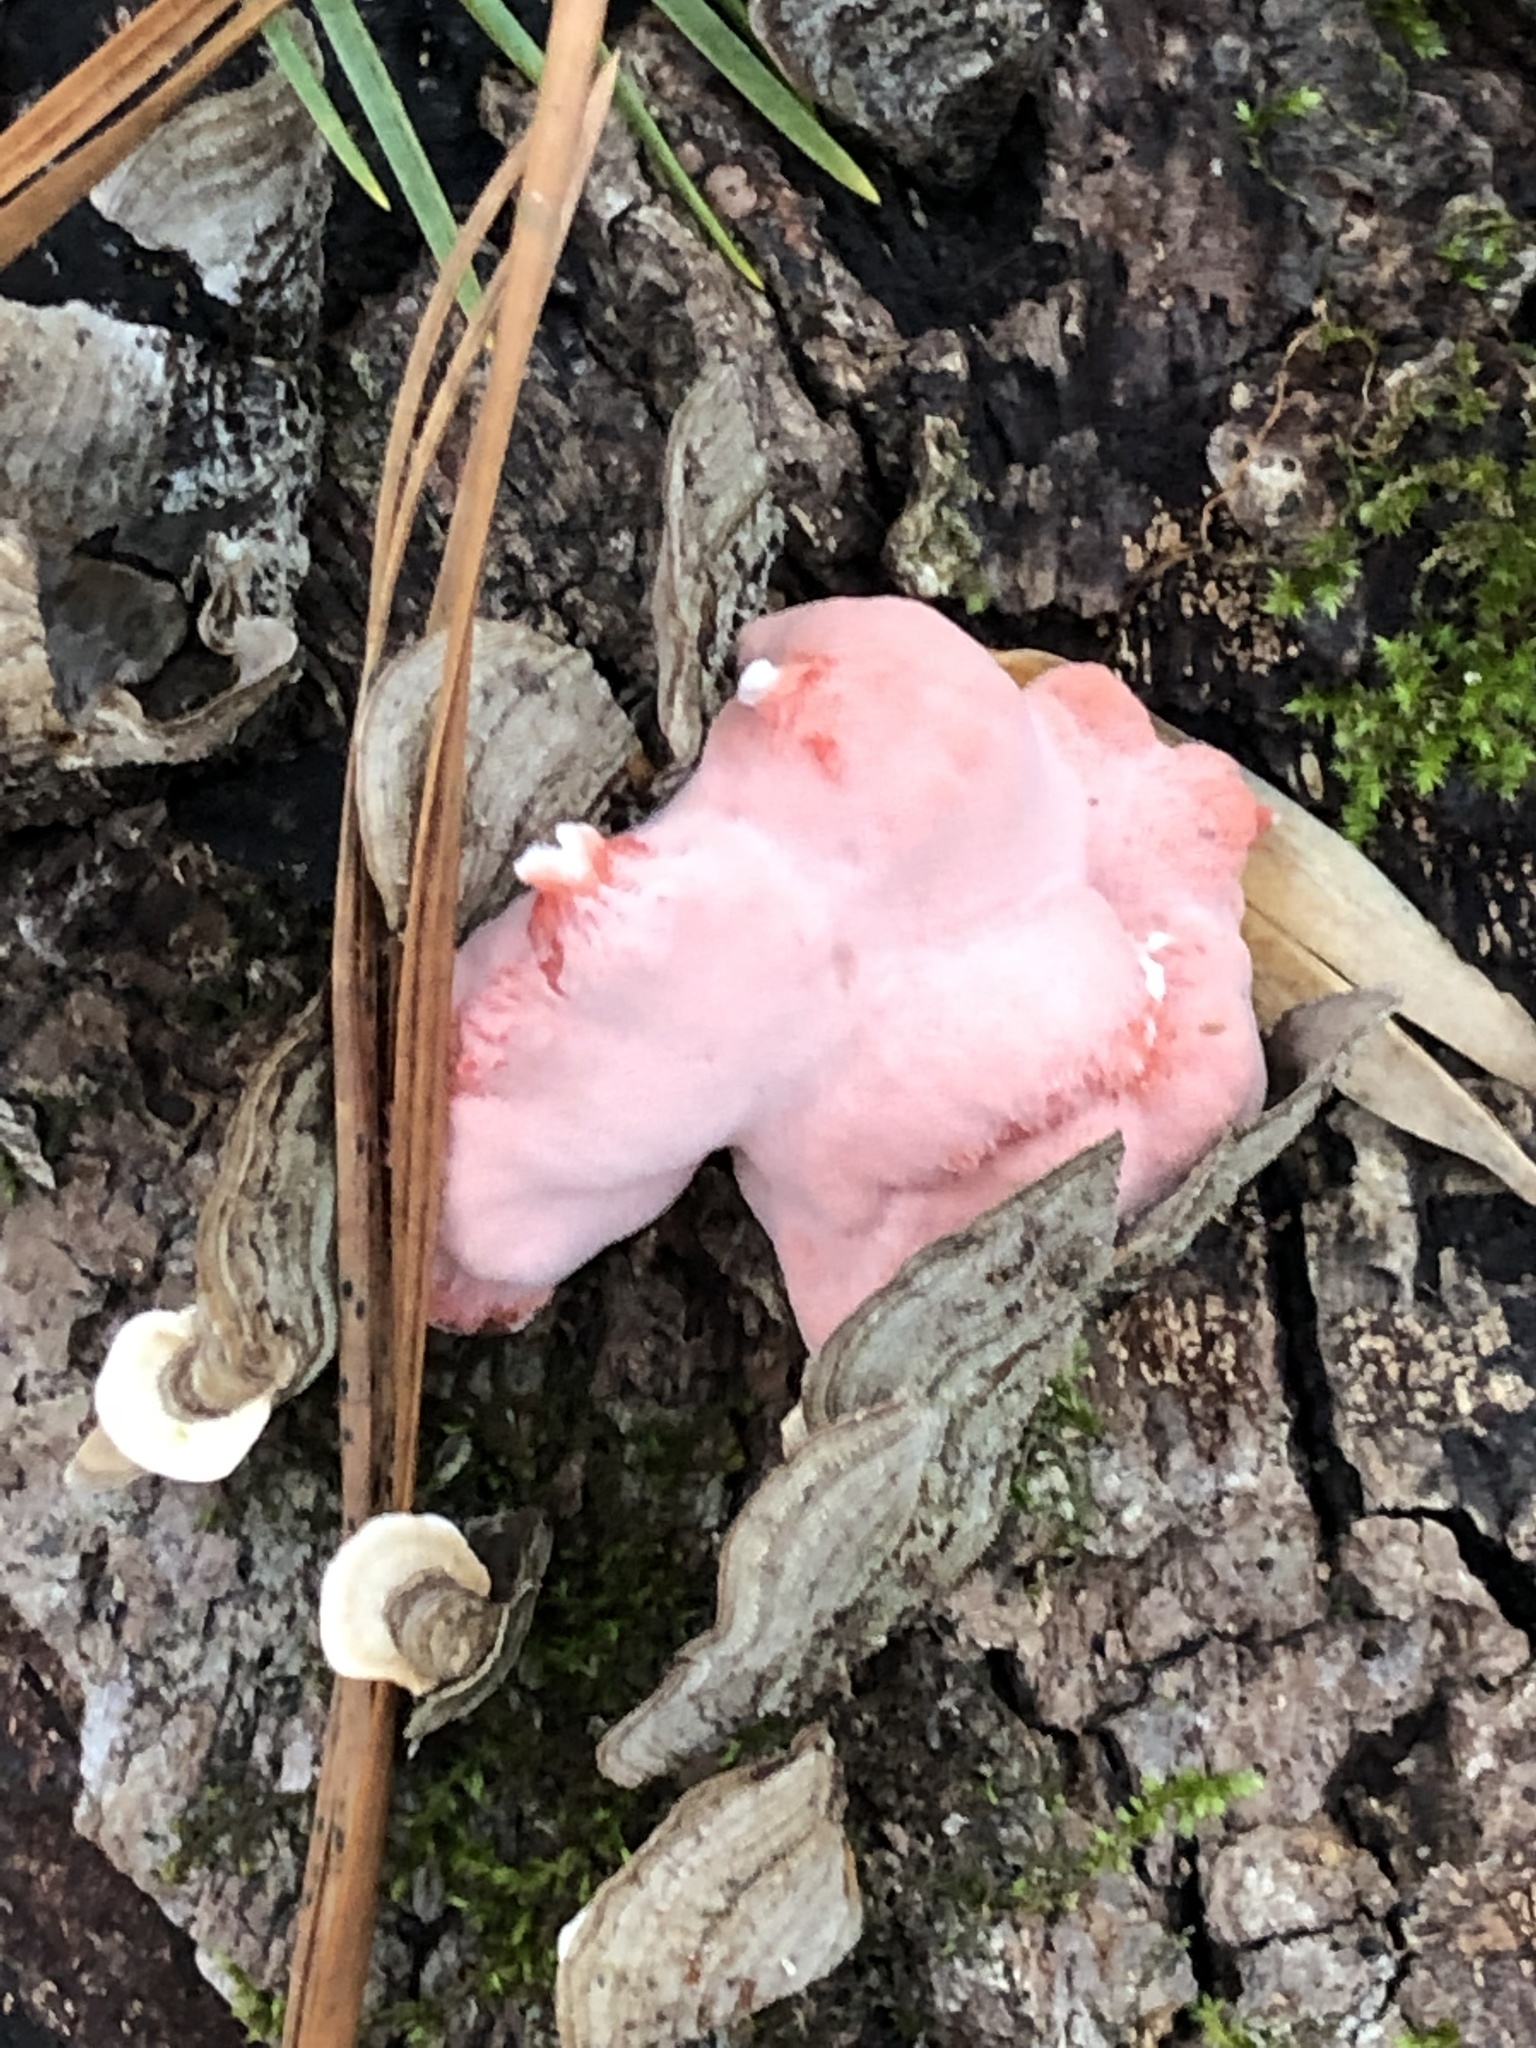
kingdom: Fungi
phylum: Basidiomycota
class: Agaricomycetes
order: Polyporales
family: Irpicaceae
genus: Byssomerulius
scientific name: Byssomerulius incarnatus
